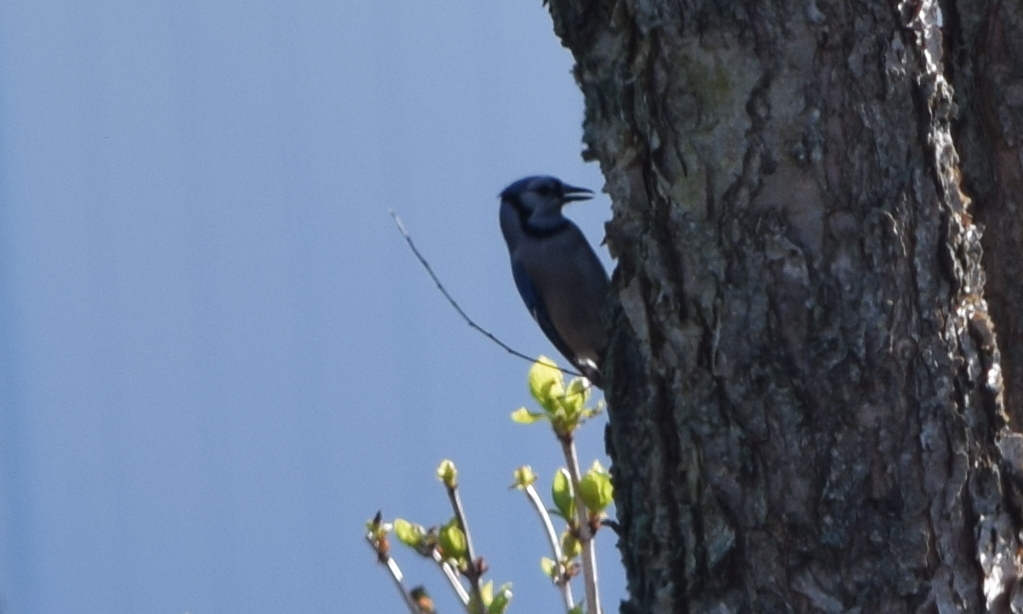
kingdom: Animalia
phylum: Chordata
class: Aves
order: Passeriformes
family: Corvidae
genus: Cyanocitta
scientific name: Cyanocitta cristata
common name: Blue jay
